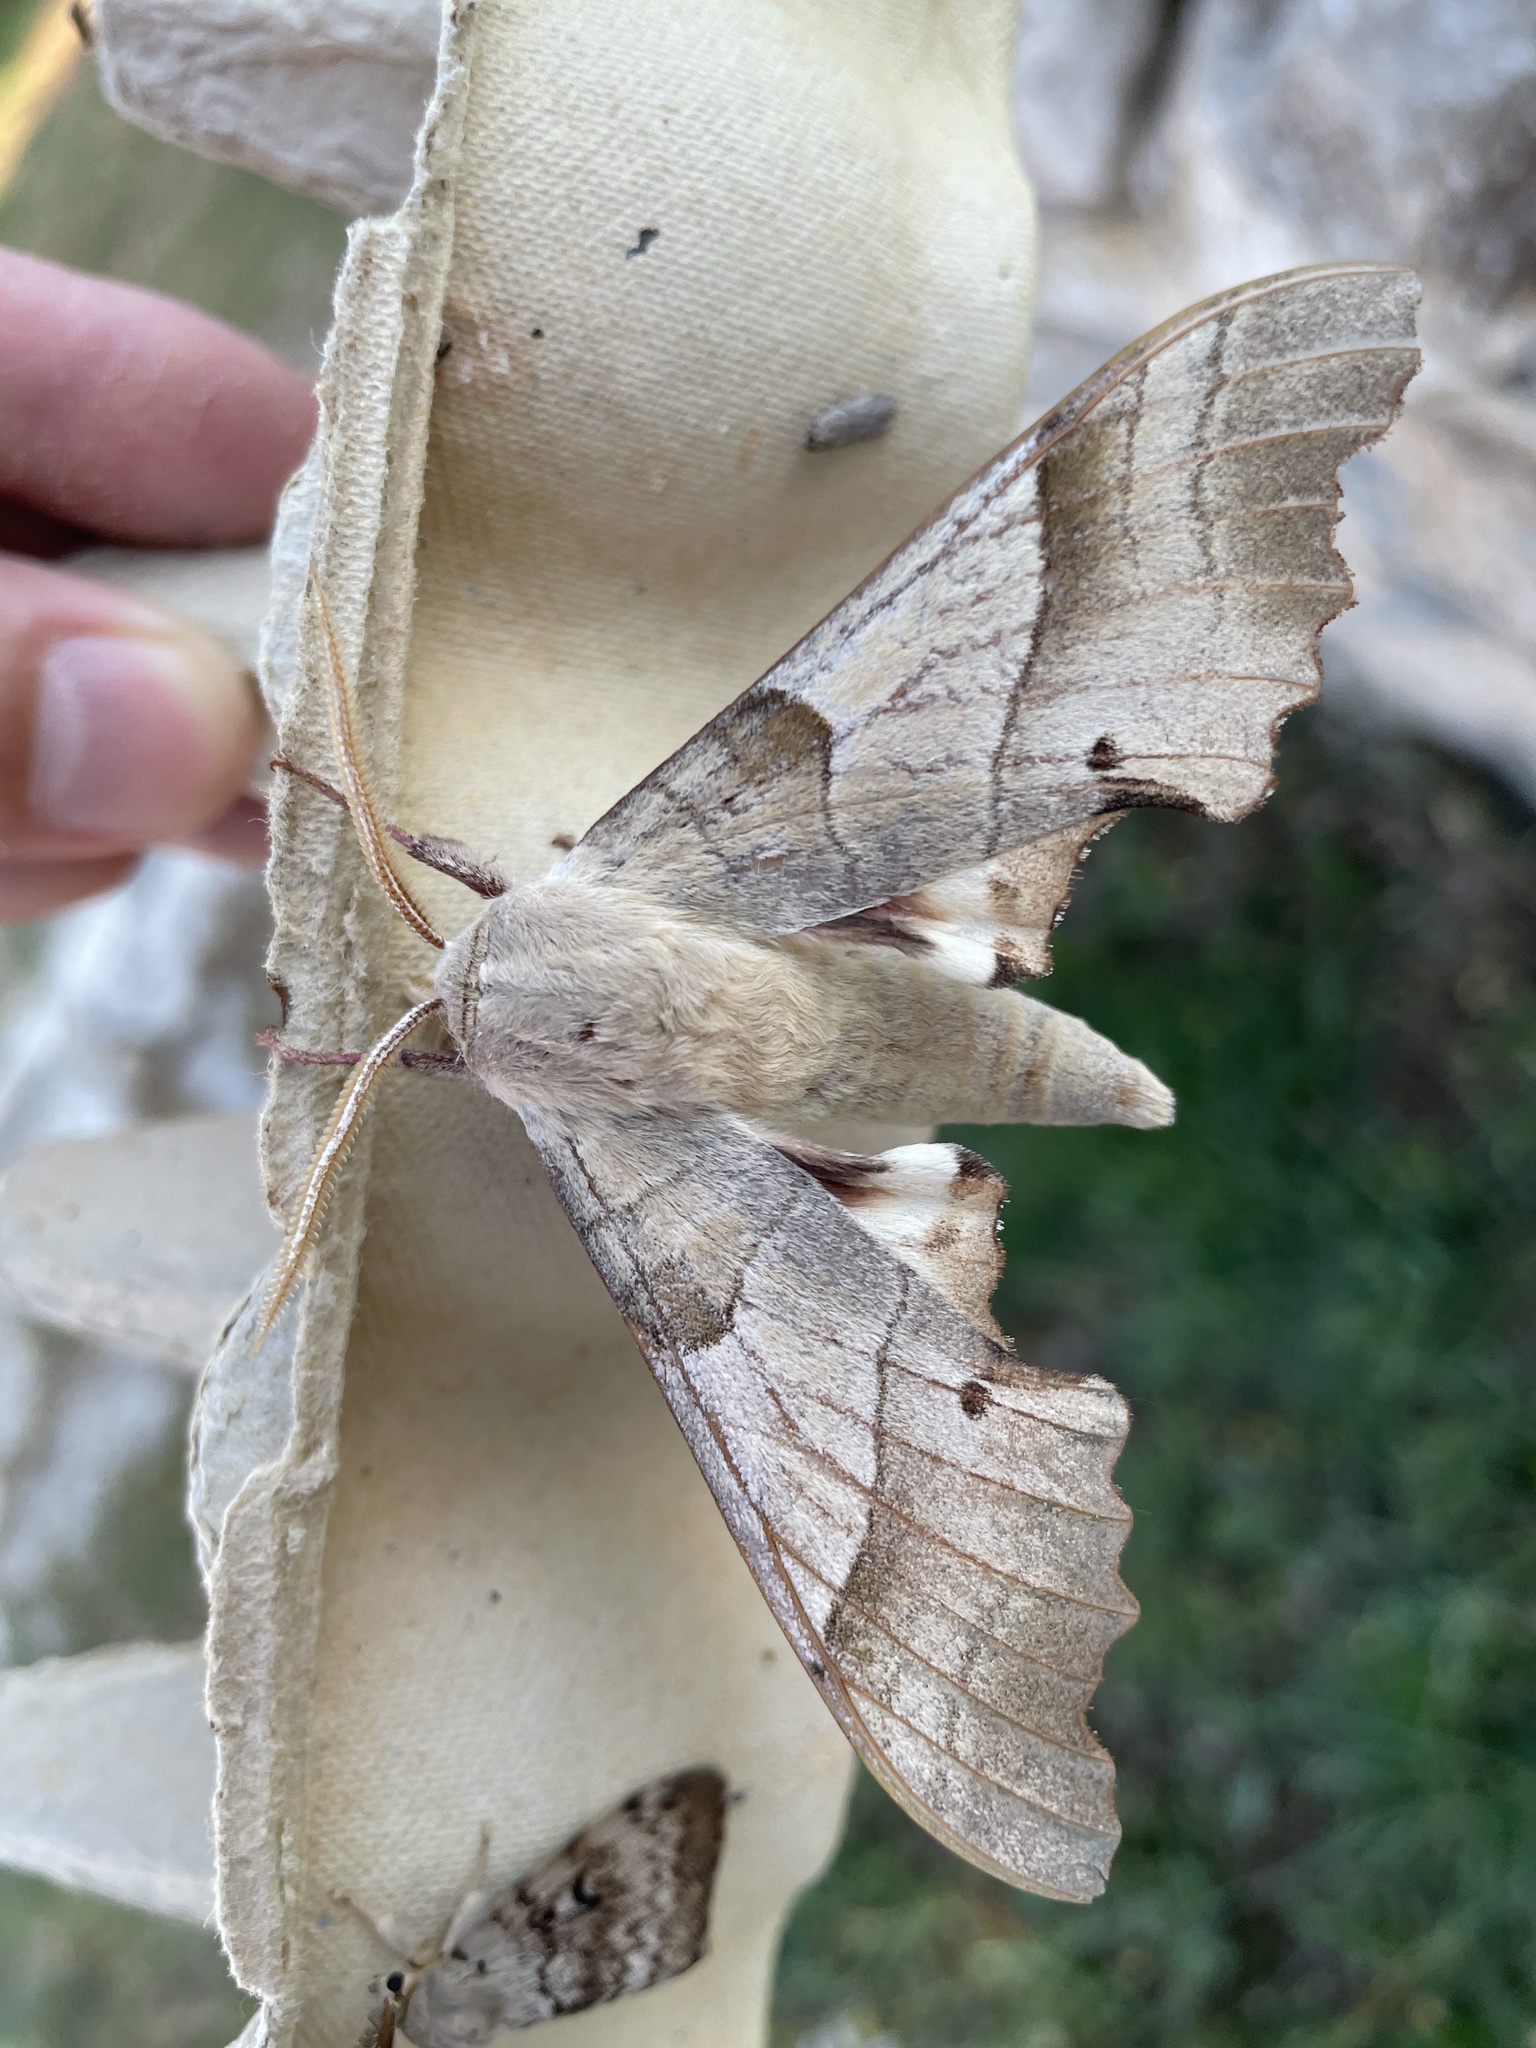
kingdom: Animalia
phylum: Arthropoda
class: Insecta
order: Lepidoptera
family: Sphingidae
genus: Marumba
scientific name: Marumba quercus
